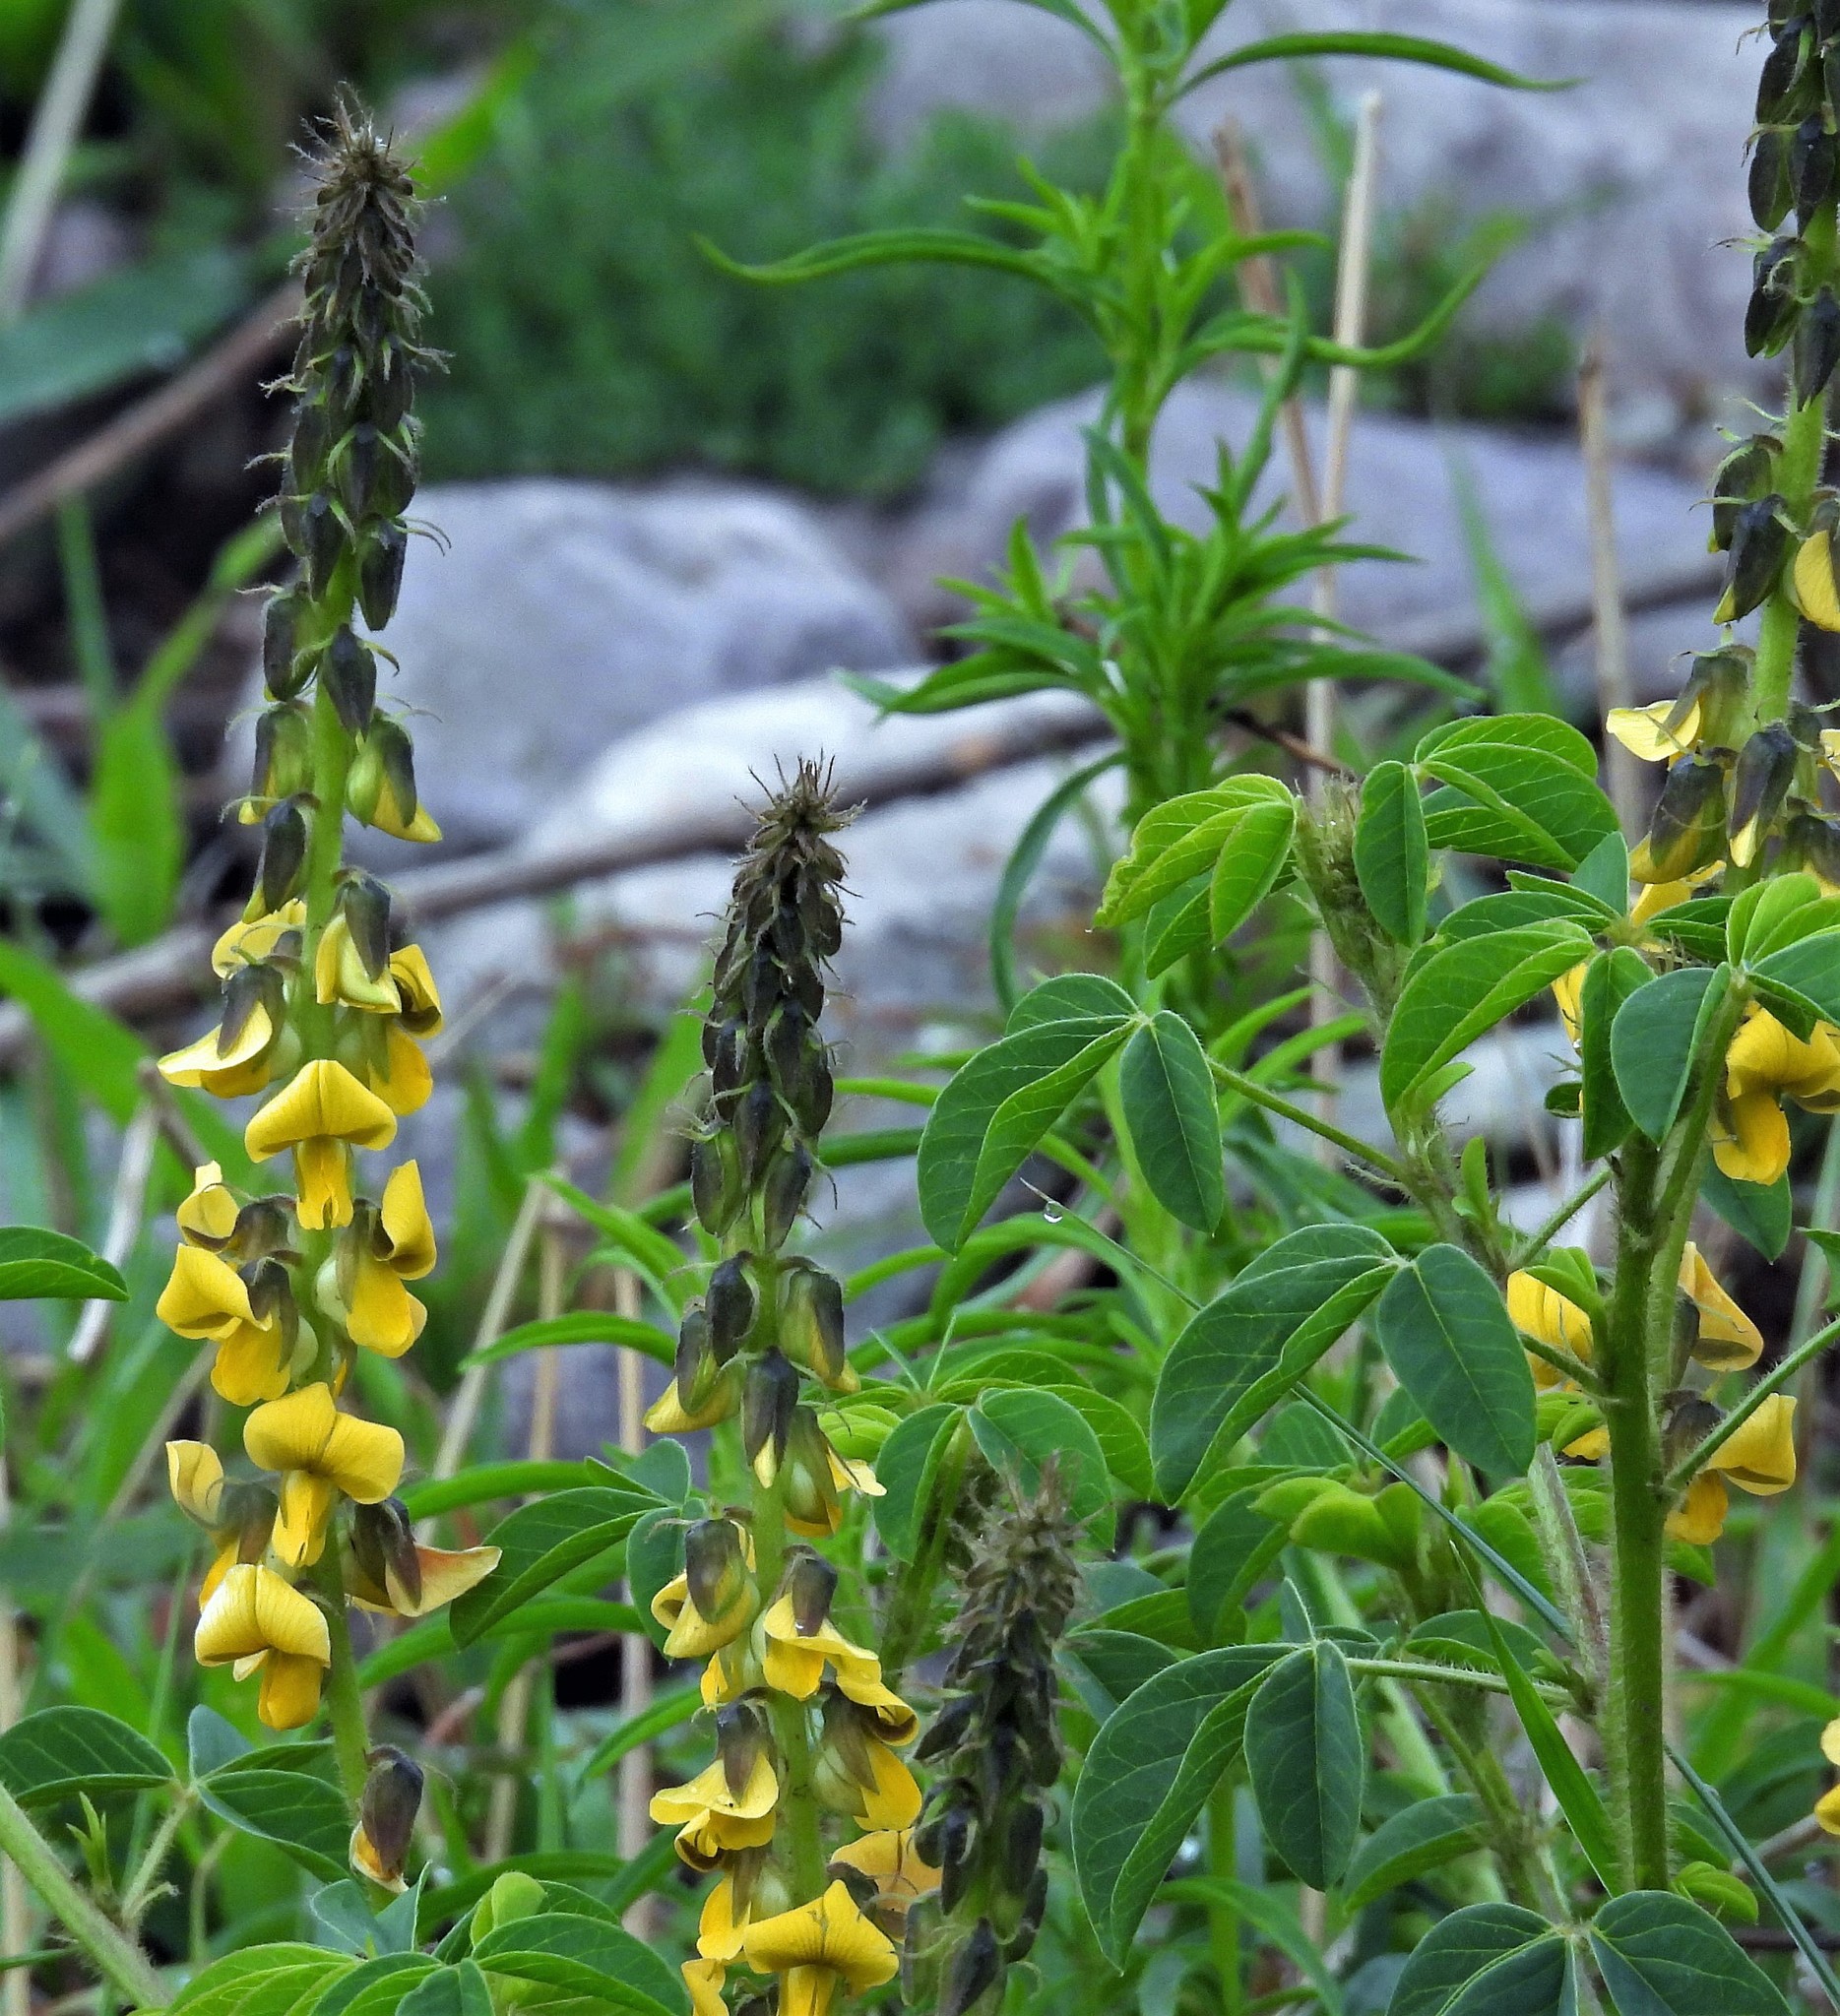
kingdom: Plantae
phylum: Tracheophyta
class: Magnoliopsida
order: Fabales
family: Fabaceae
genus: Crotalaria
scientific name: Crotalaria maypurensis
